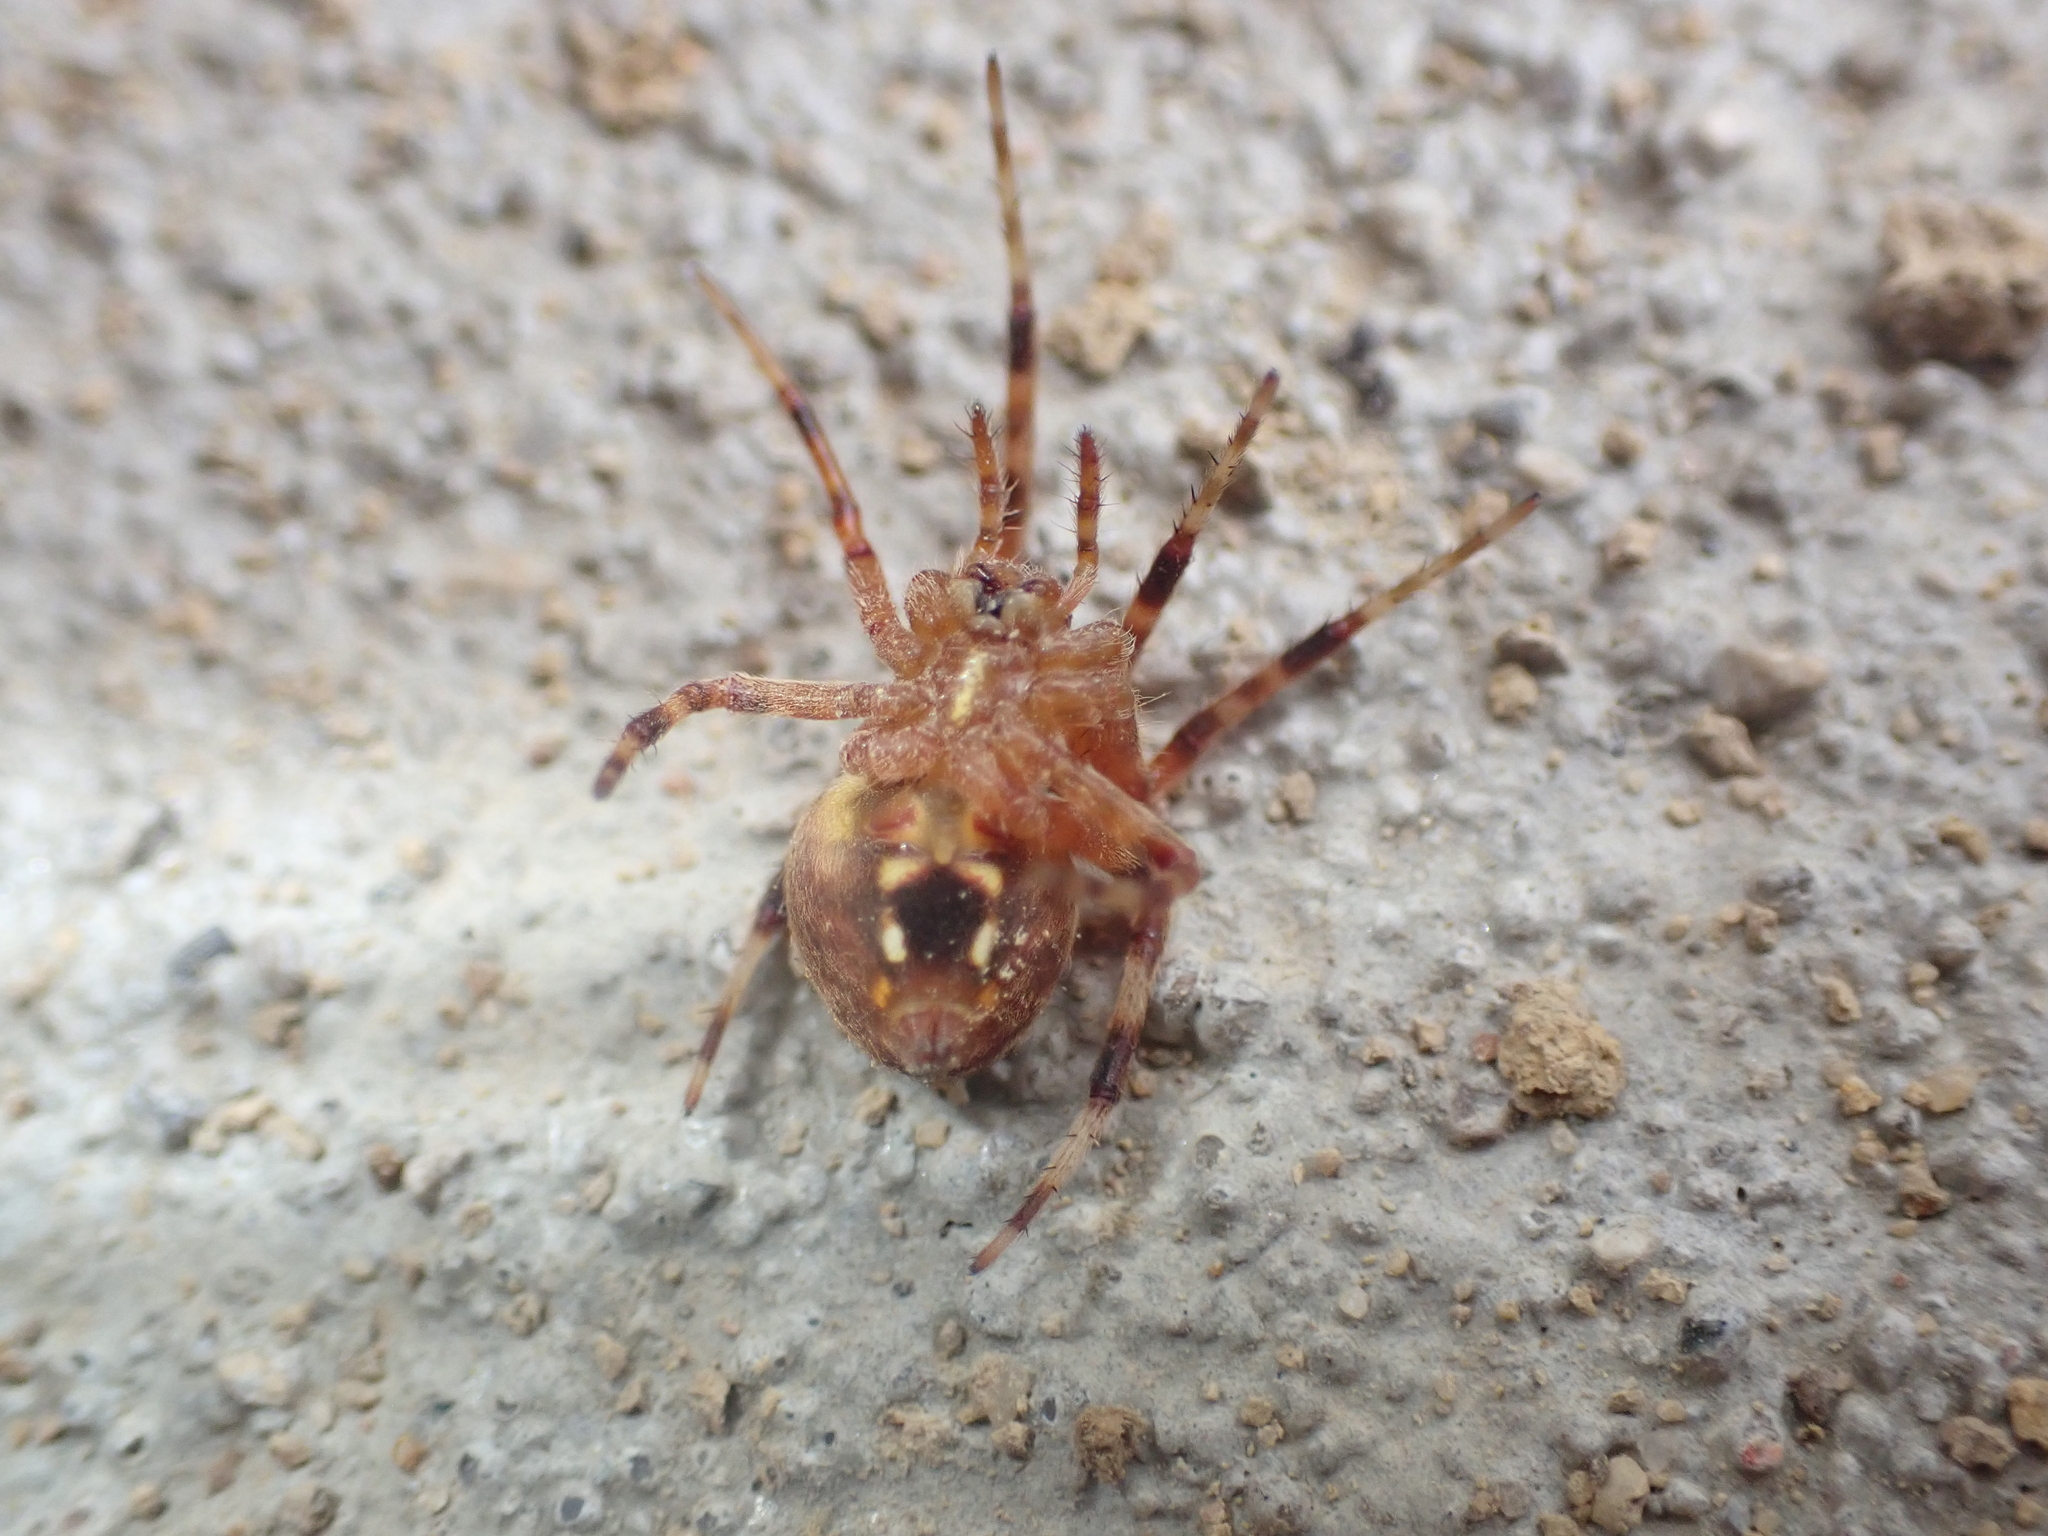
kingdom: Animalia
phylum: Arthropoda
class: Arachnida
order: Araneae
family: Araneidae
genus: Neoscona
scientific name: Neoscona crucifera
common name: Spotted orbweaver
